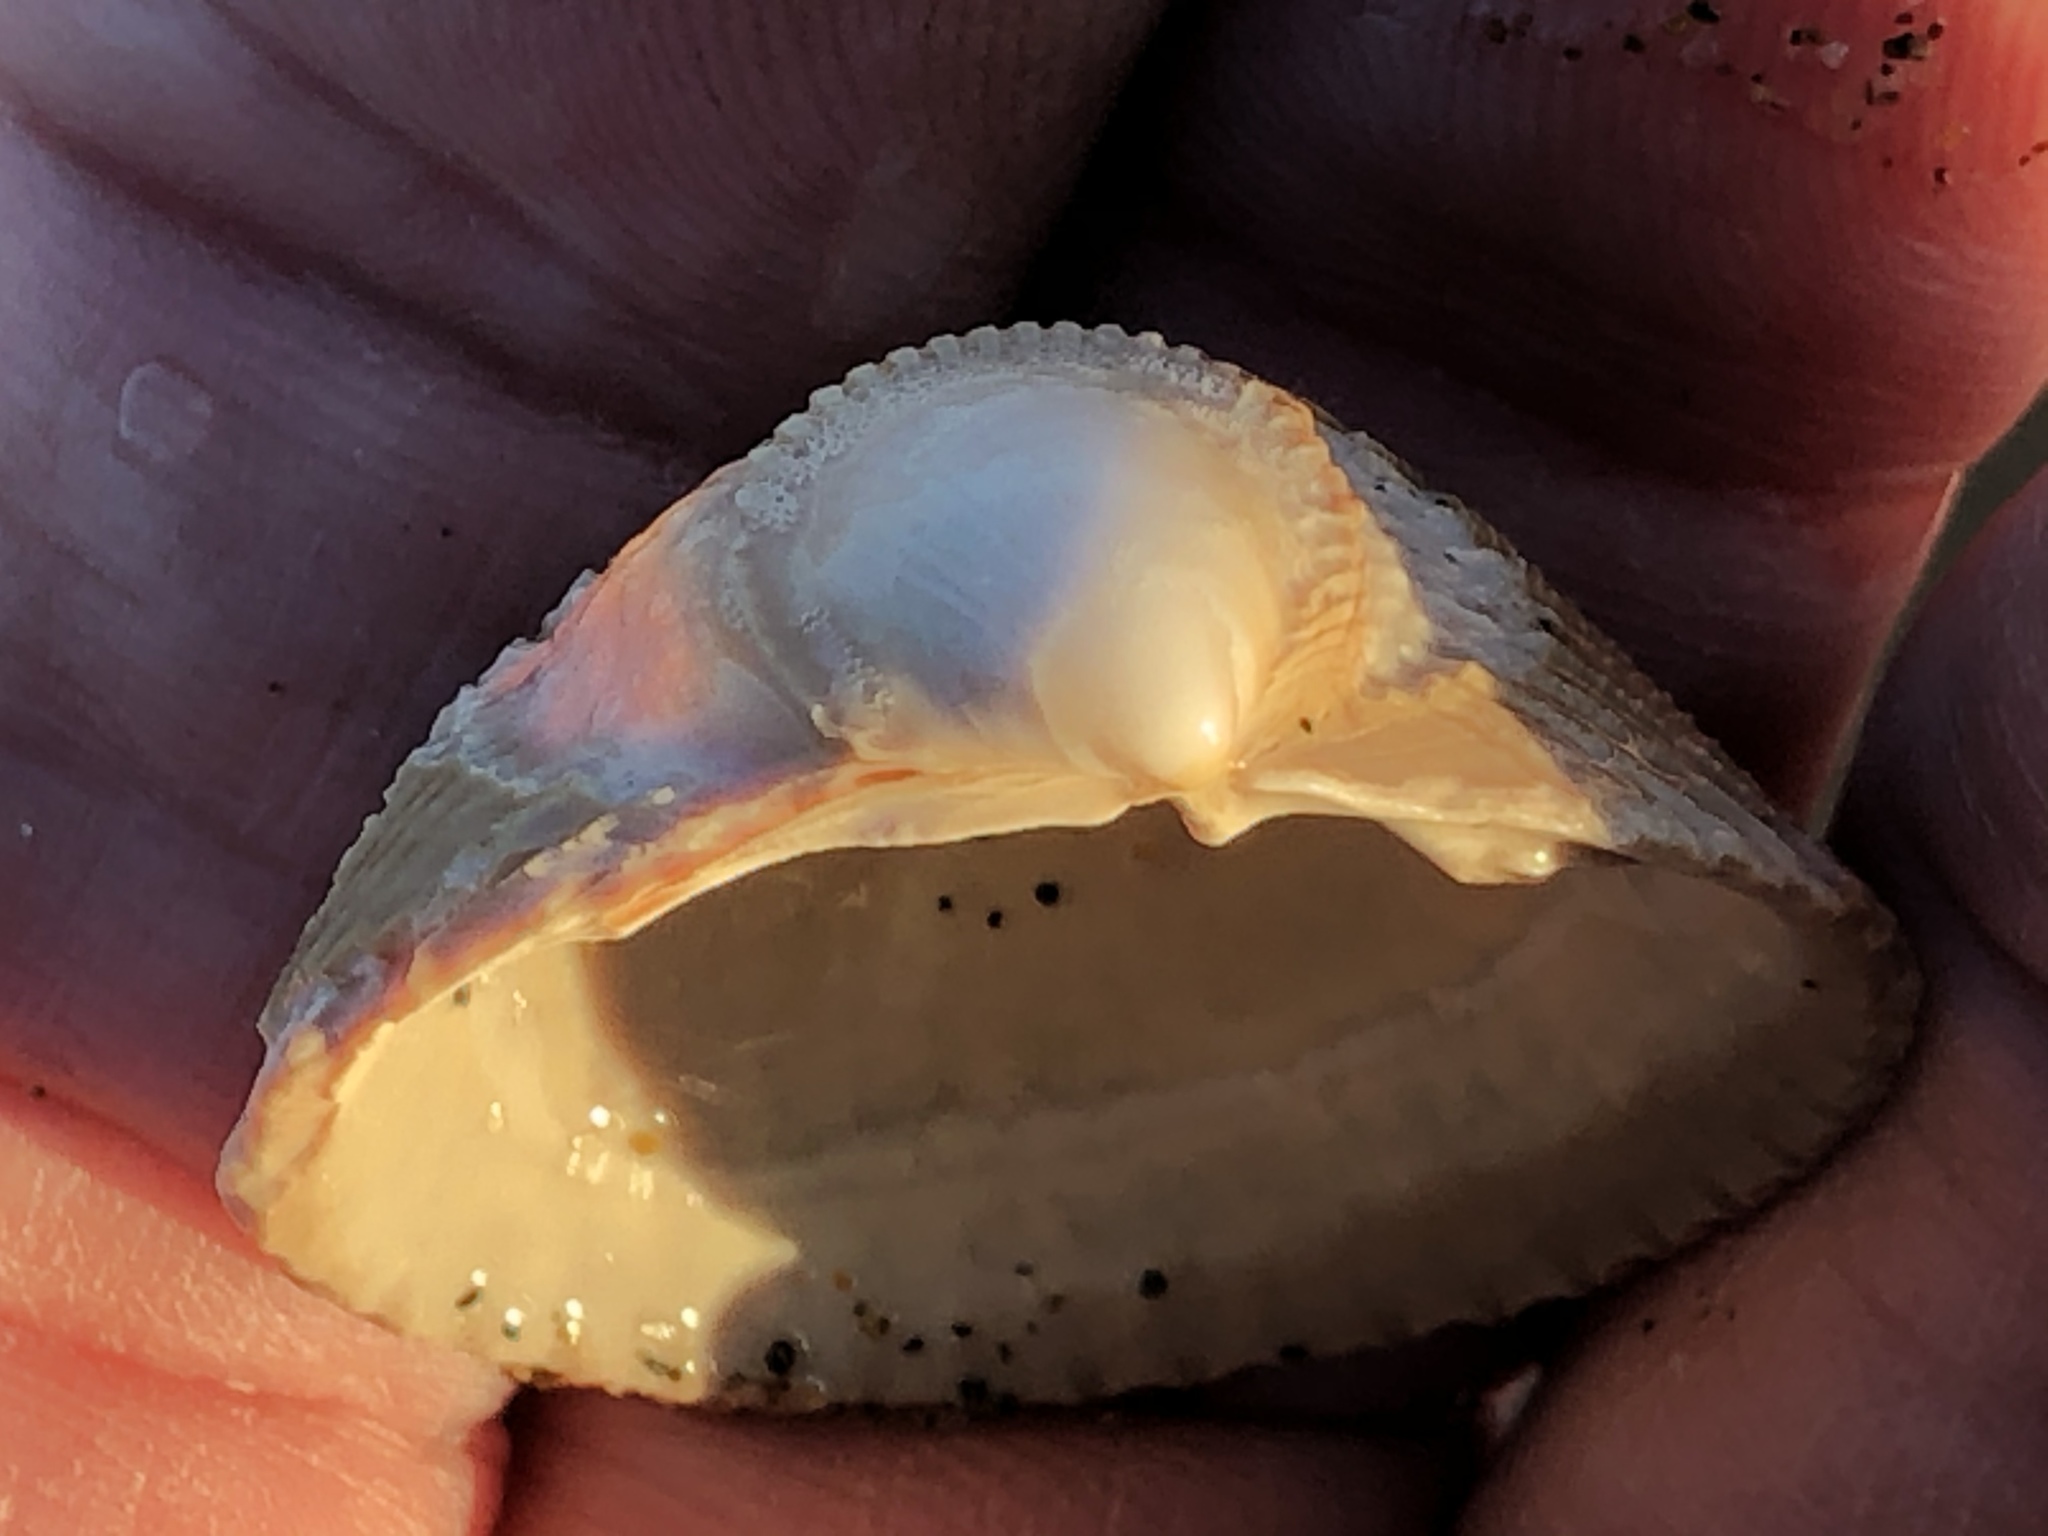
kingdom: Animalia
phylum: Mollusca
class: Bivalvia
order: Cardiida
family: Cardiidae
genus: Clinocardium
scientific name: Clinocardium nuttallii
